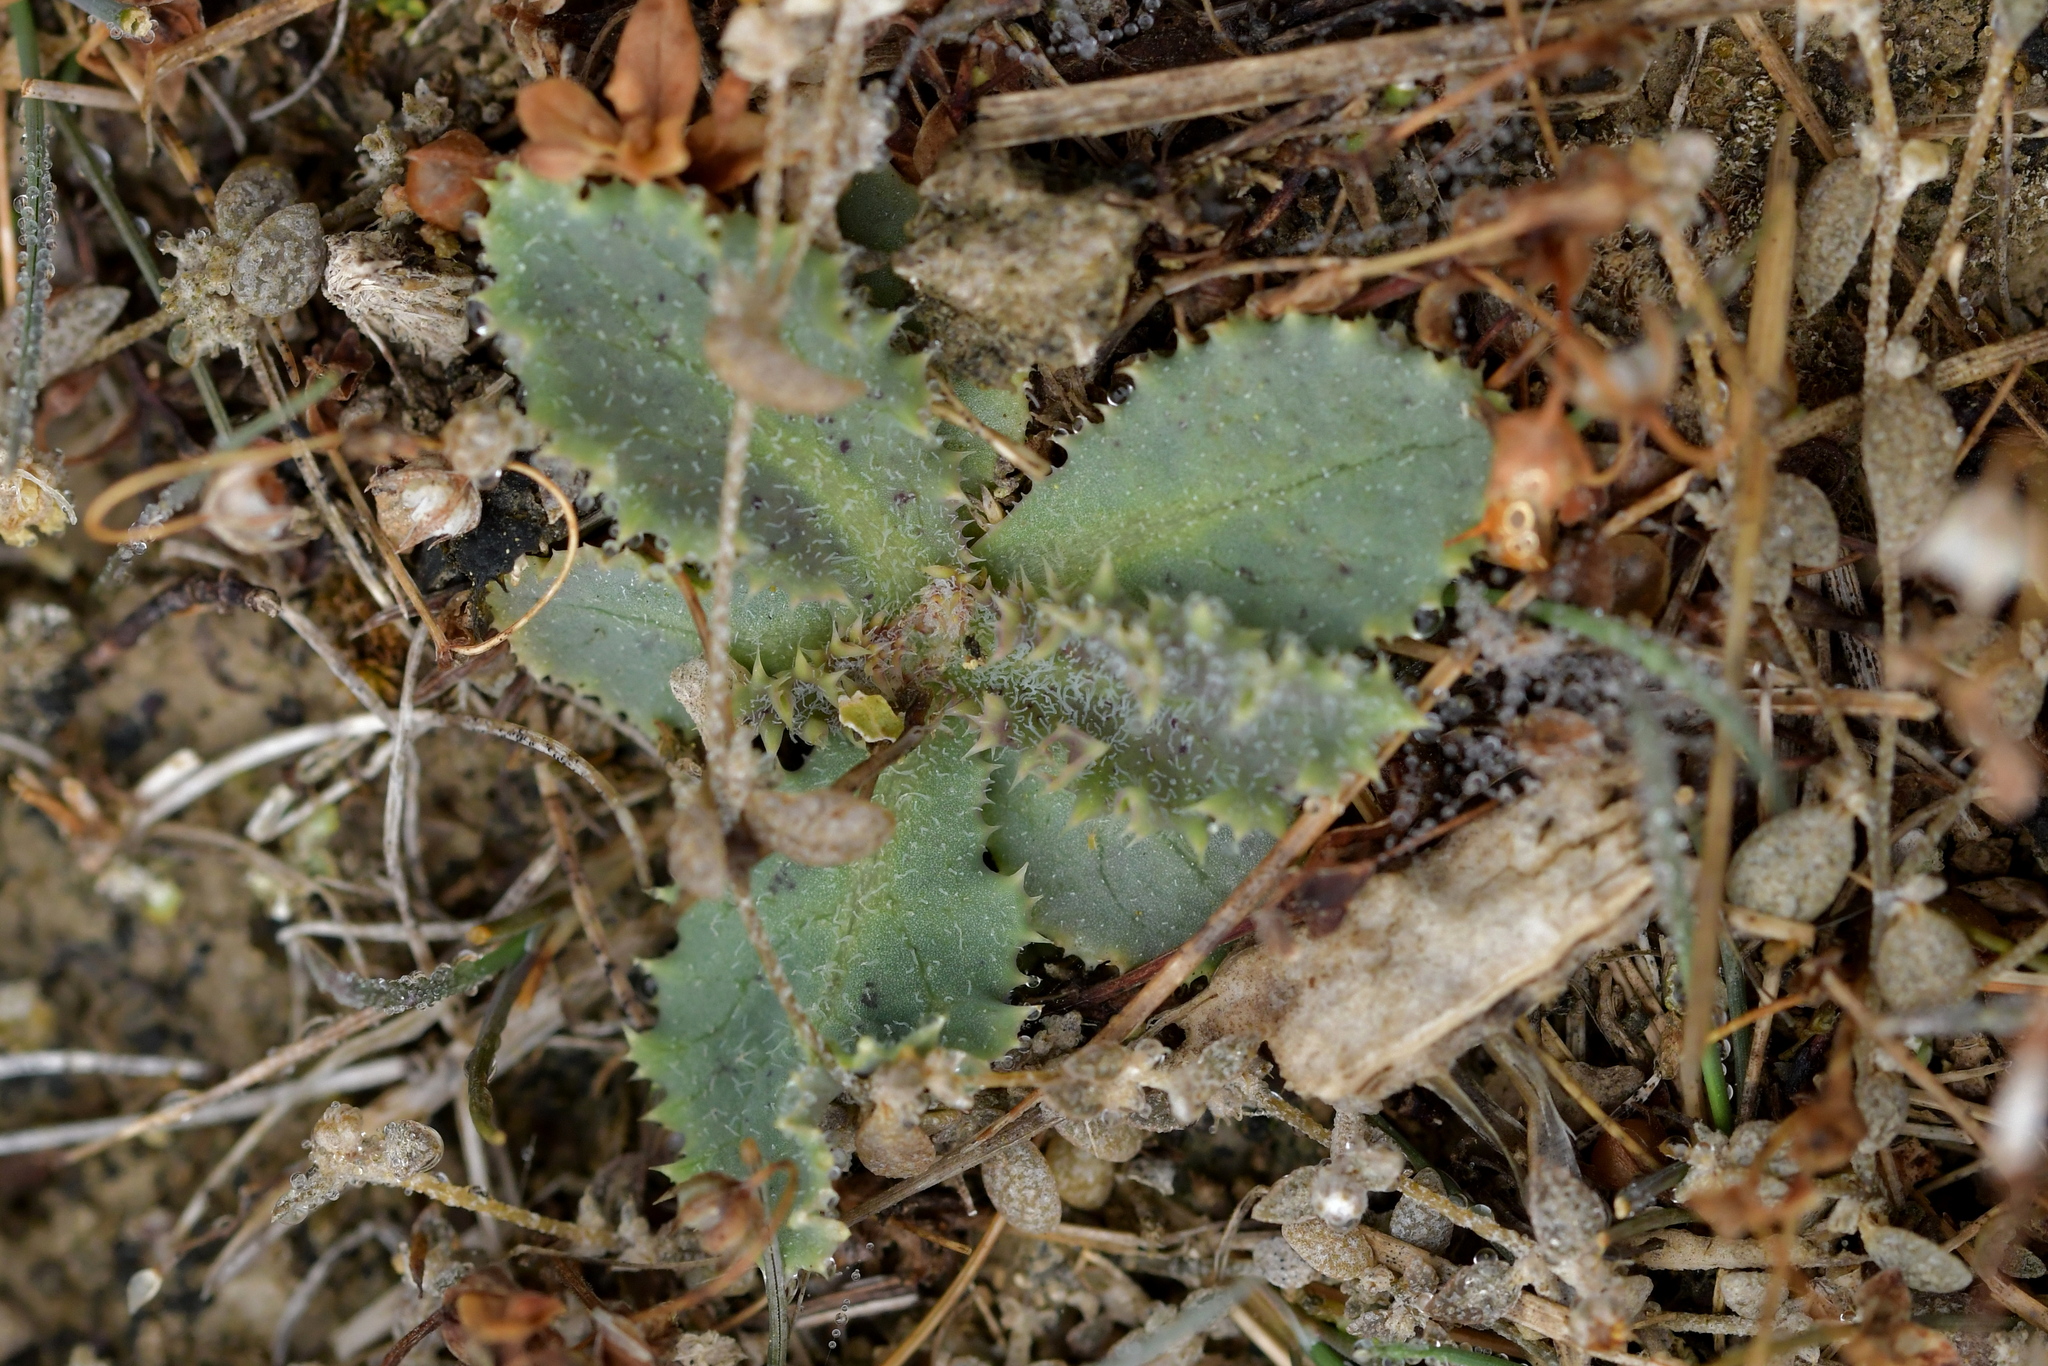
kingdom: Plantae
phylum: Tracheophyta
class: Magnoliopsida
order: Asterales
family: Asteraceae
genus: Sonchus
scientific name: Sonchus asper
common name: Prickly sow-thistle
